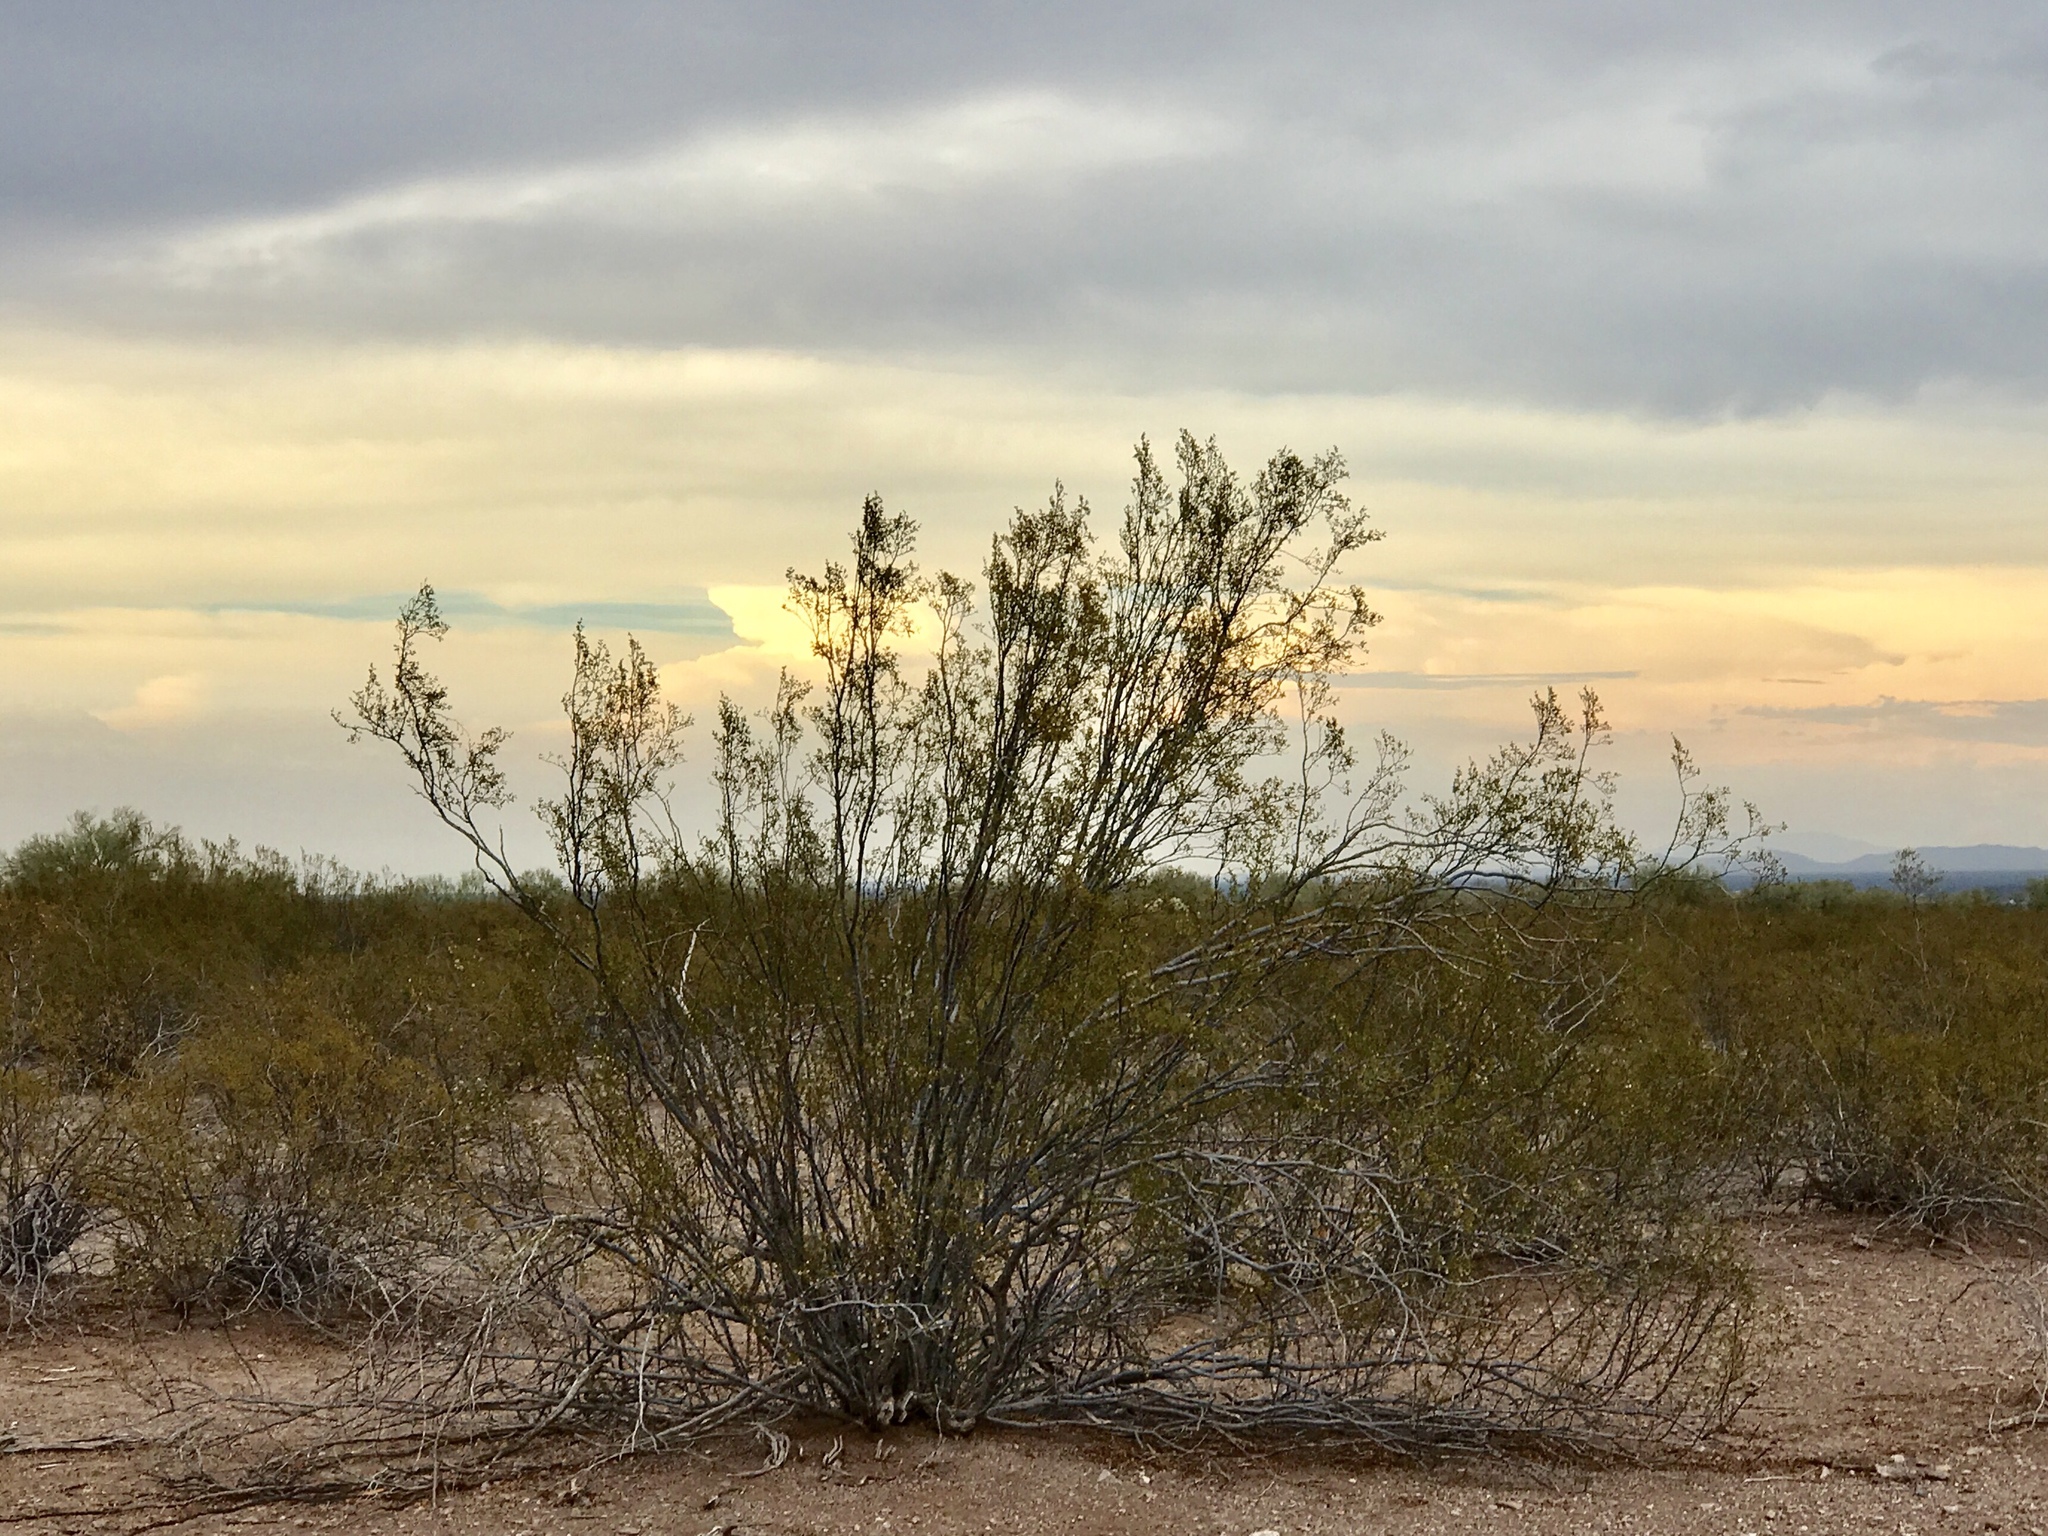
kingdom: Plantae
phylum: Tracheophyta
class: Magnoliopsida
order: Zygophyllales
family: Zygophyllaceae
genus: Larrea
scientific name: Larrea tridentata
